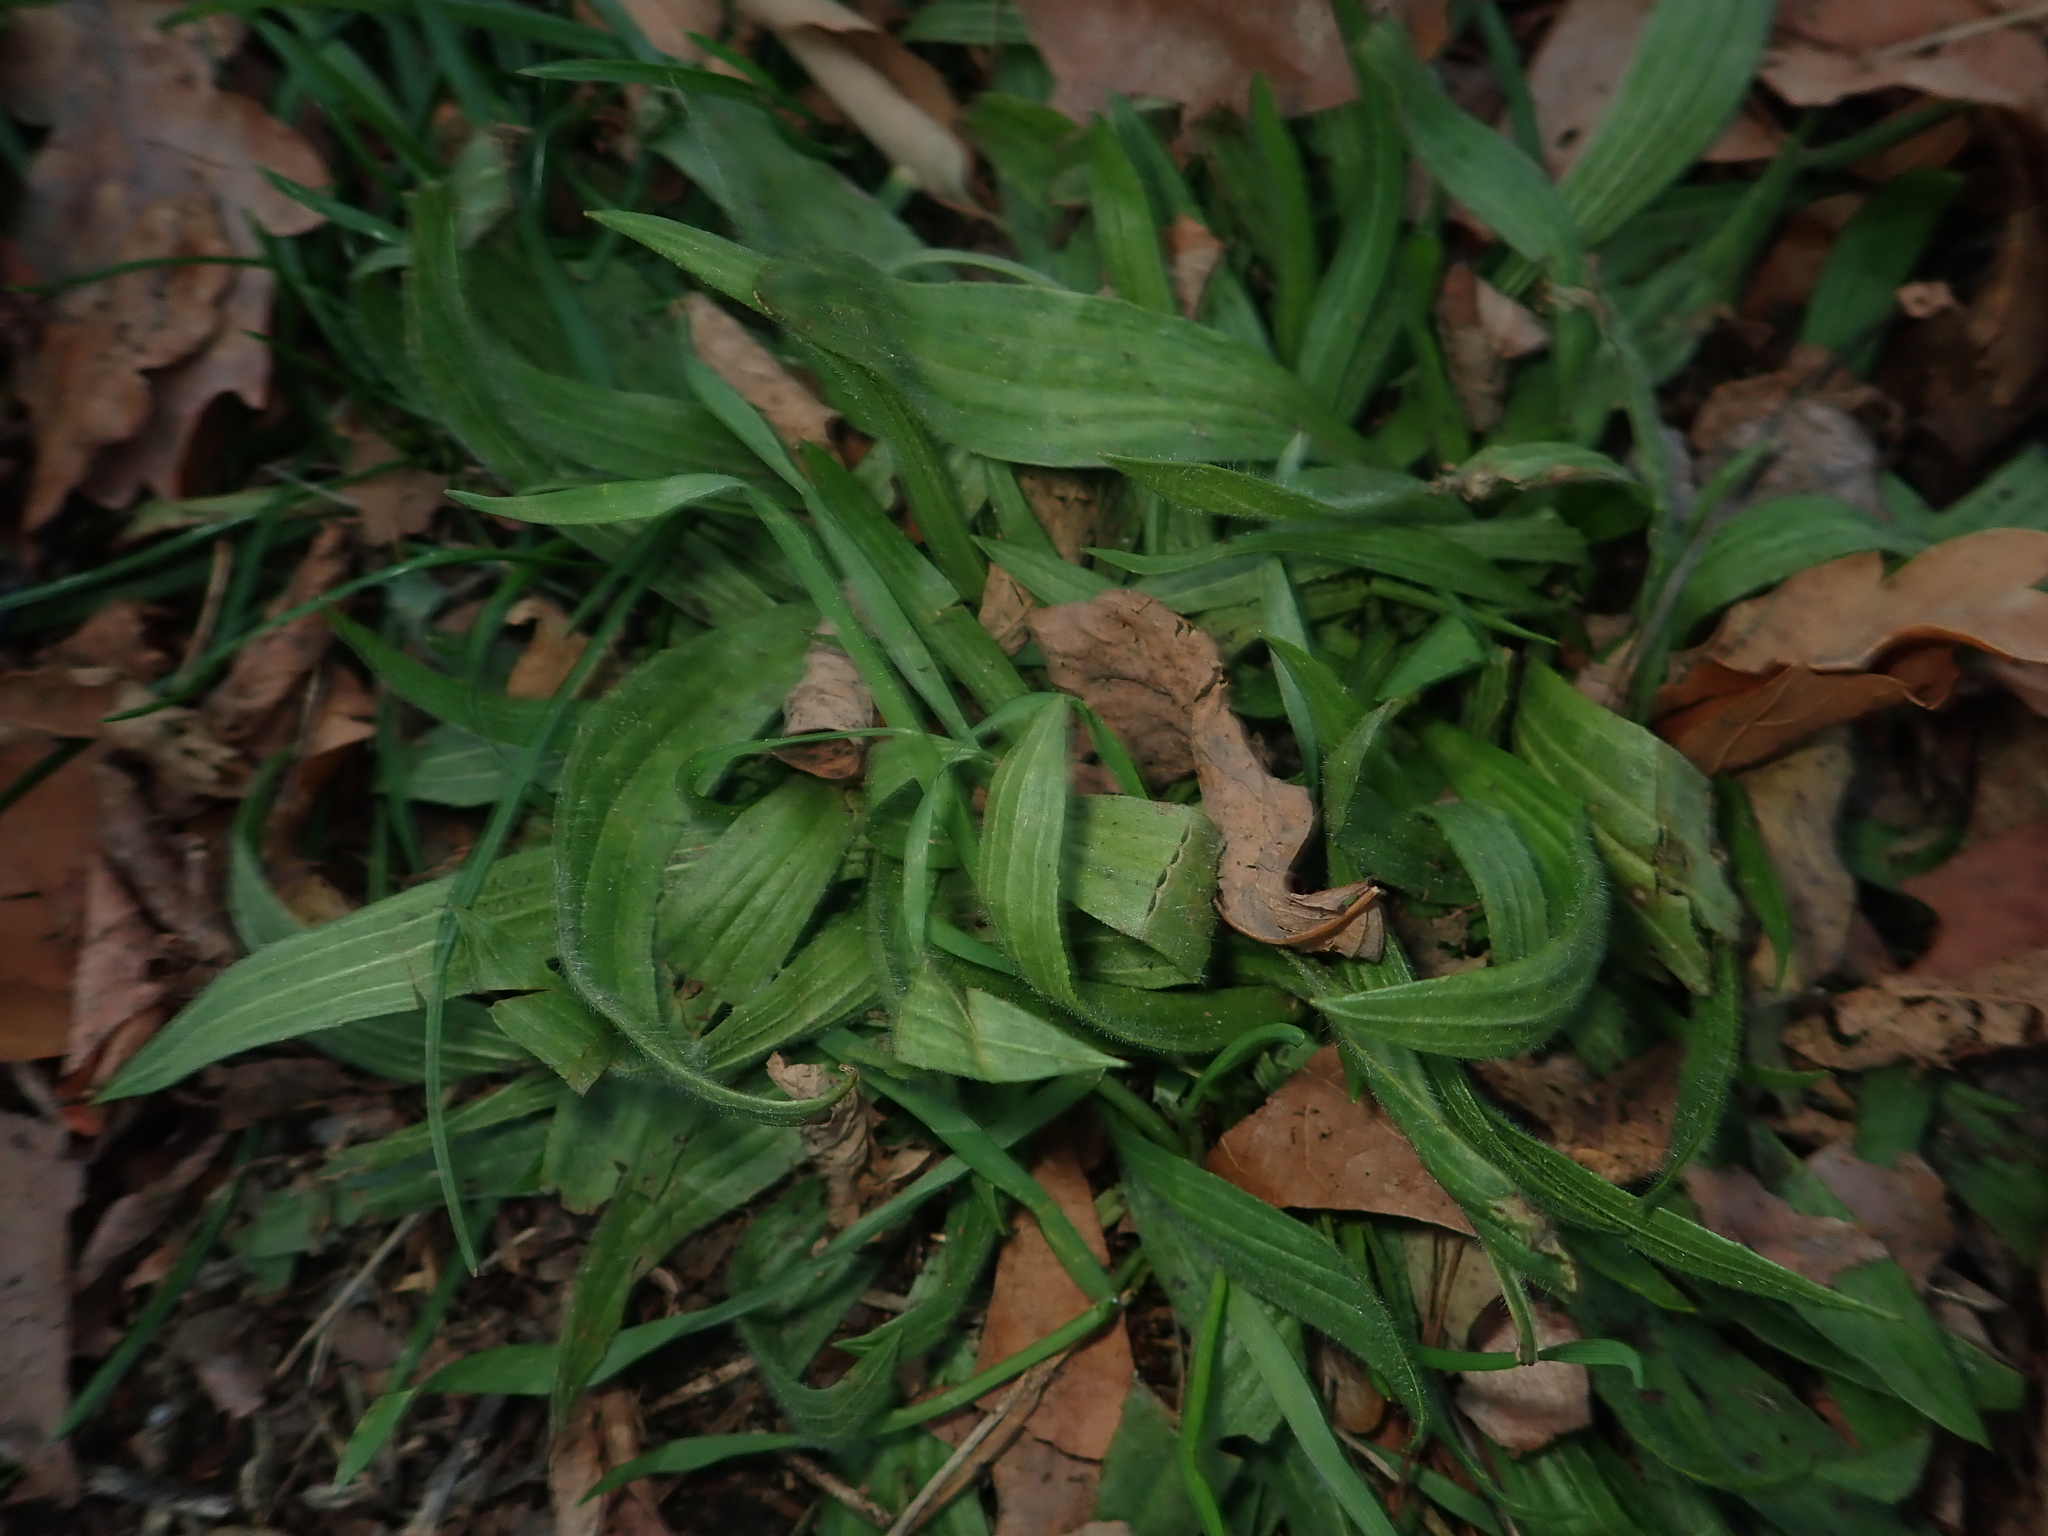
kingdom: Plantae
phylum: Tracheophyta
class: Magnoliopsida
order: Lamiales
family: Plantaginaceae
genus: Plantago
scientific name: Plantago lanceolata
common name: Ribwort plantain
